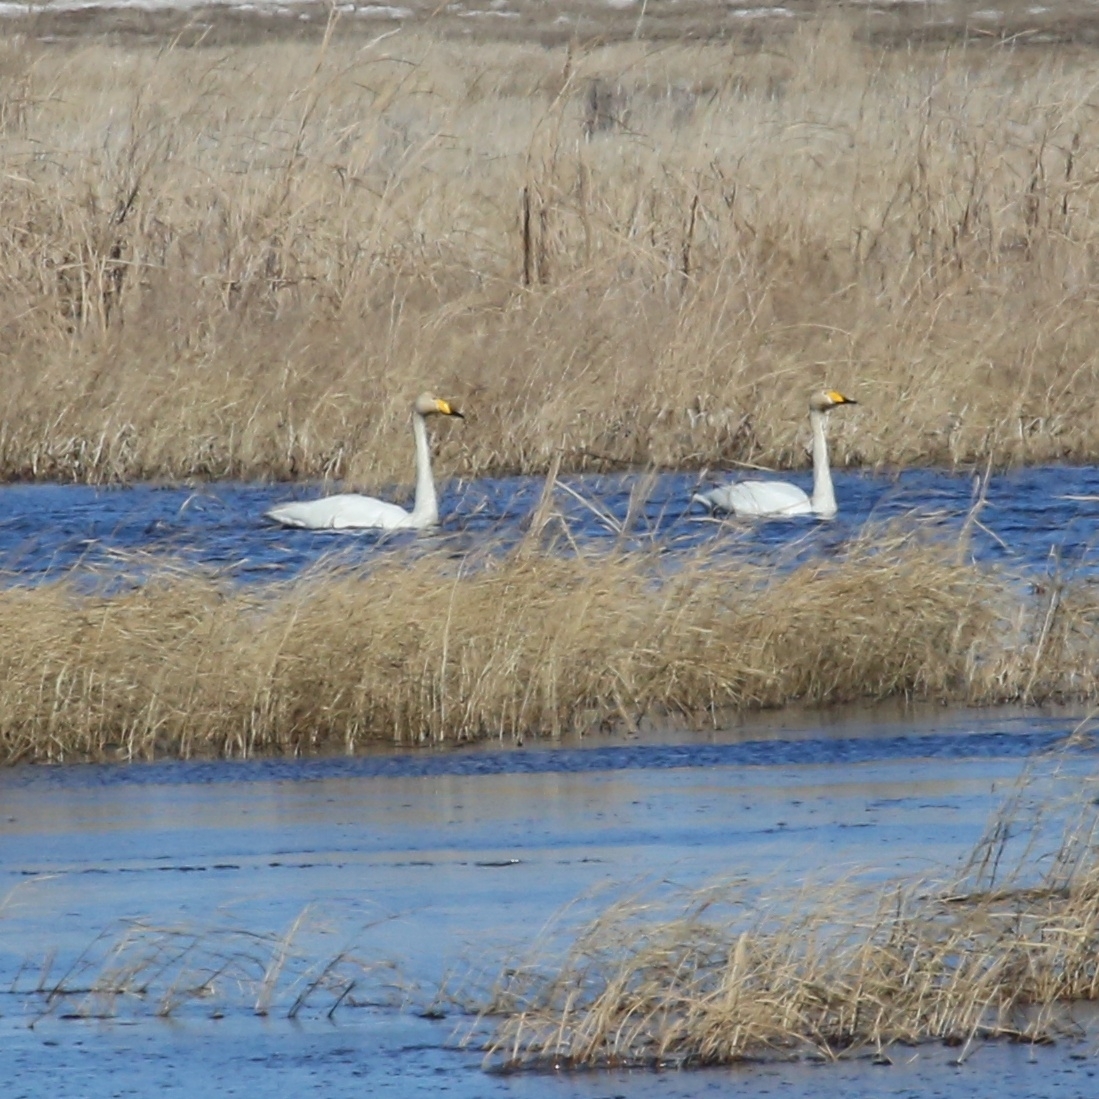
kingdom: Animalia
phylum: Chordata
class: Aves
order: Anseriformes
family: Anatidae
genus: Cygnus
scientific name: Cygnus cygnus
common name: Whooper swan
